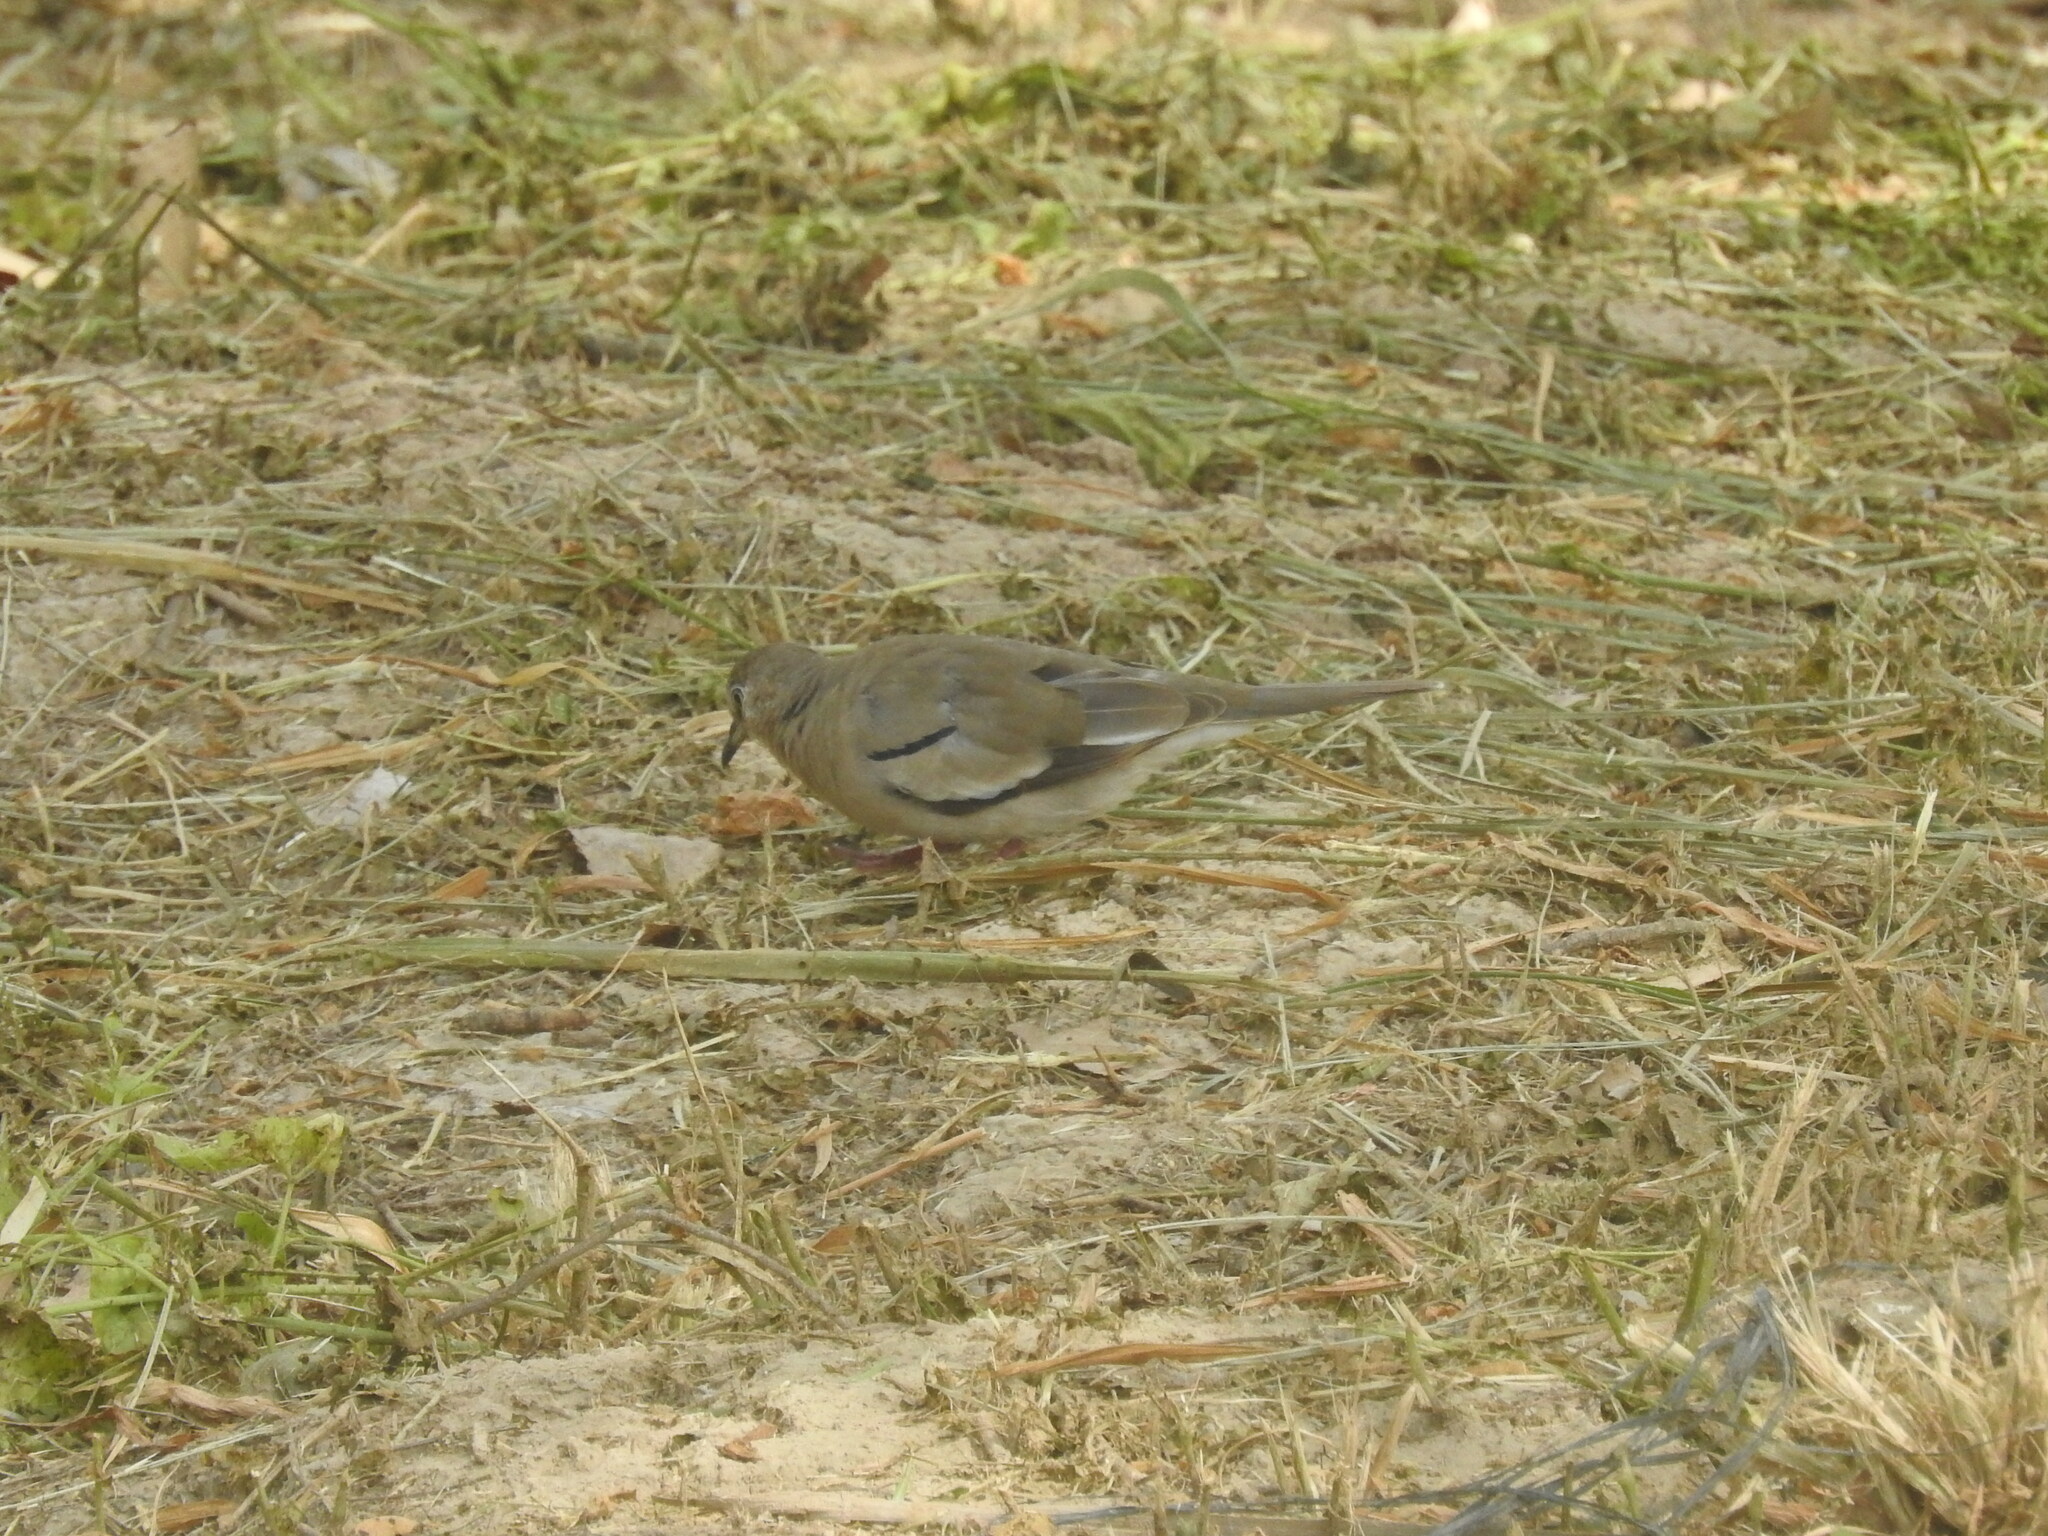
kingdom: Animalia
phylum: Chordata
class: Aves
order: Columbiformes
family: Columbidae
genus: Columbina
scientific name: Columbina picui
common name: Picui ground dove
